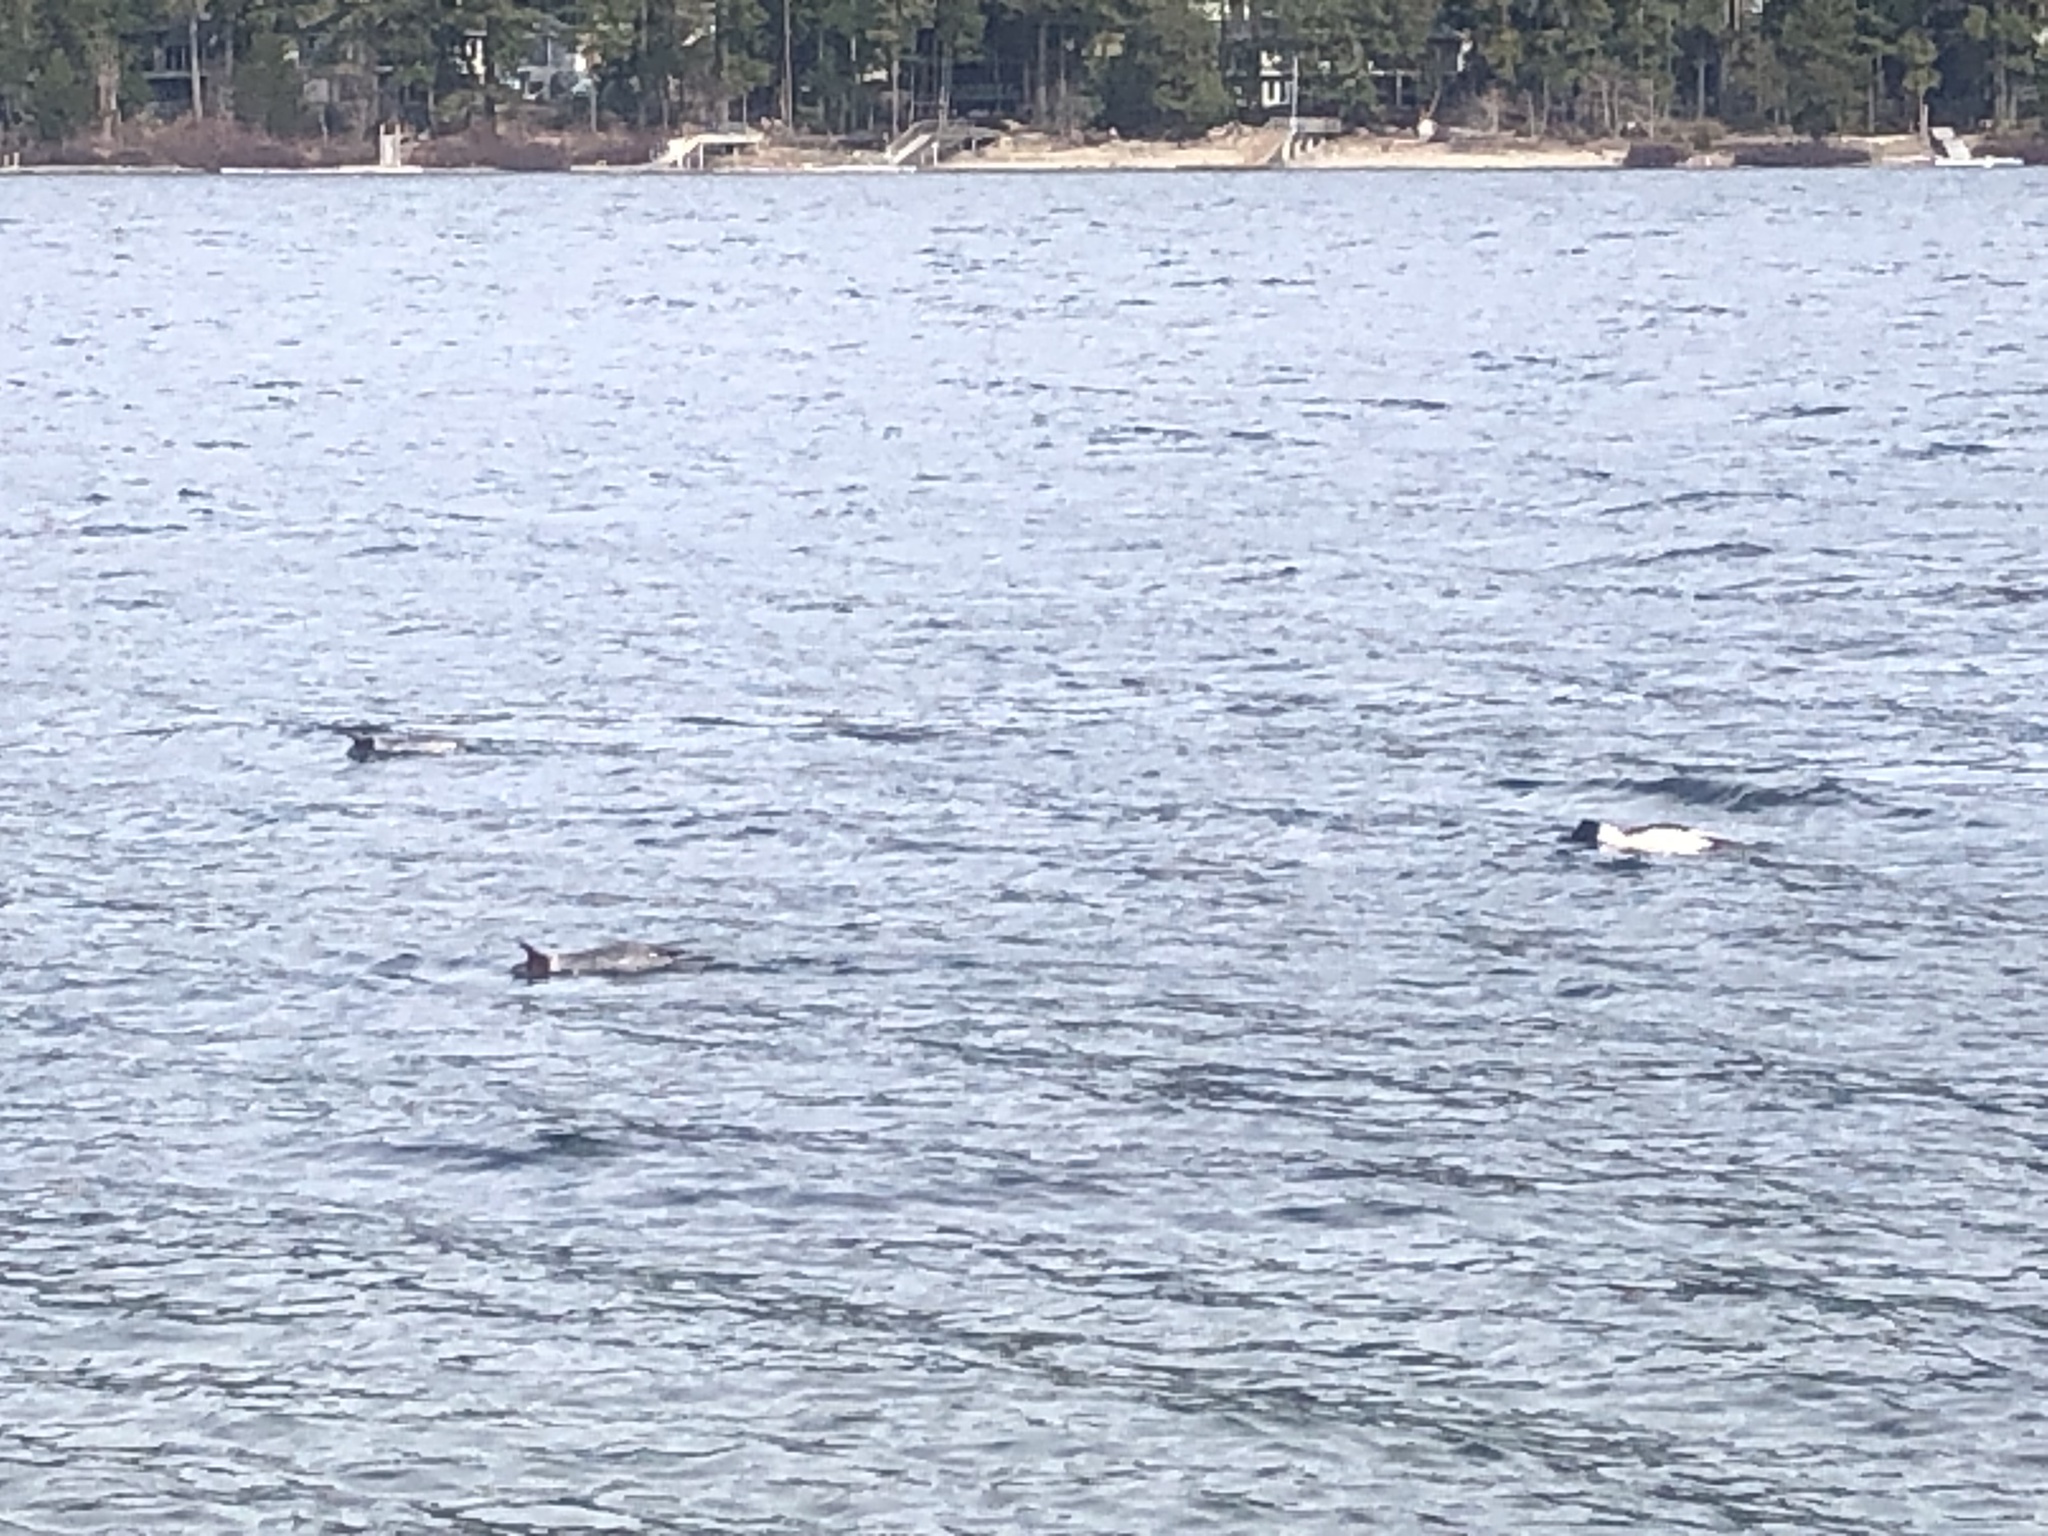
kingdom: Animalia
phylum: Chordata
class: Aves
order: Anseriformes
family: Anatidae
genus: Mergus
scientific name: Mergus merganser
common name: Common merganser
